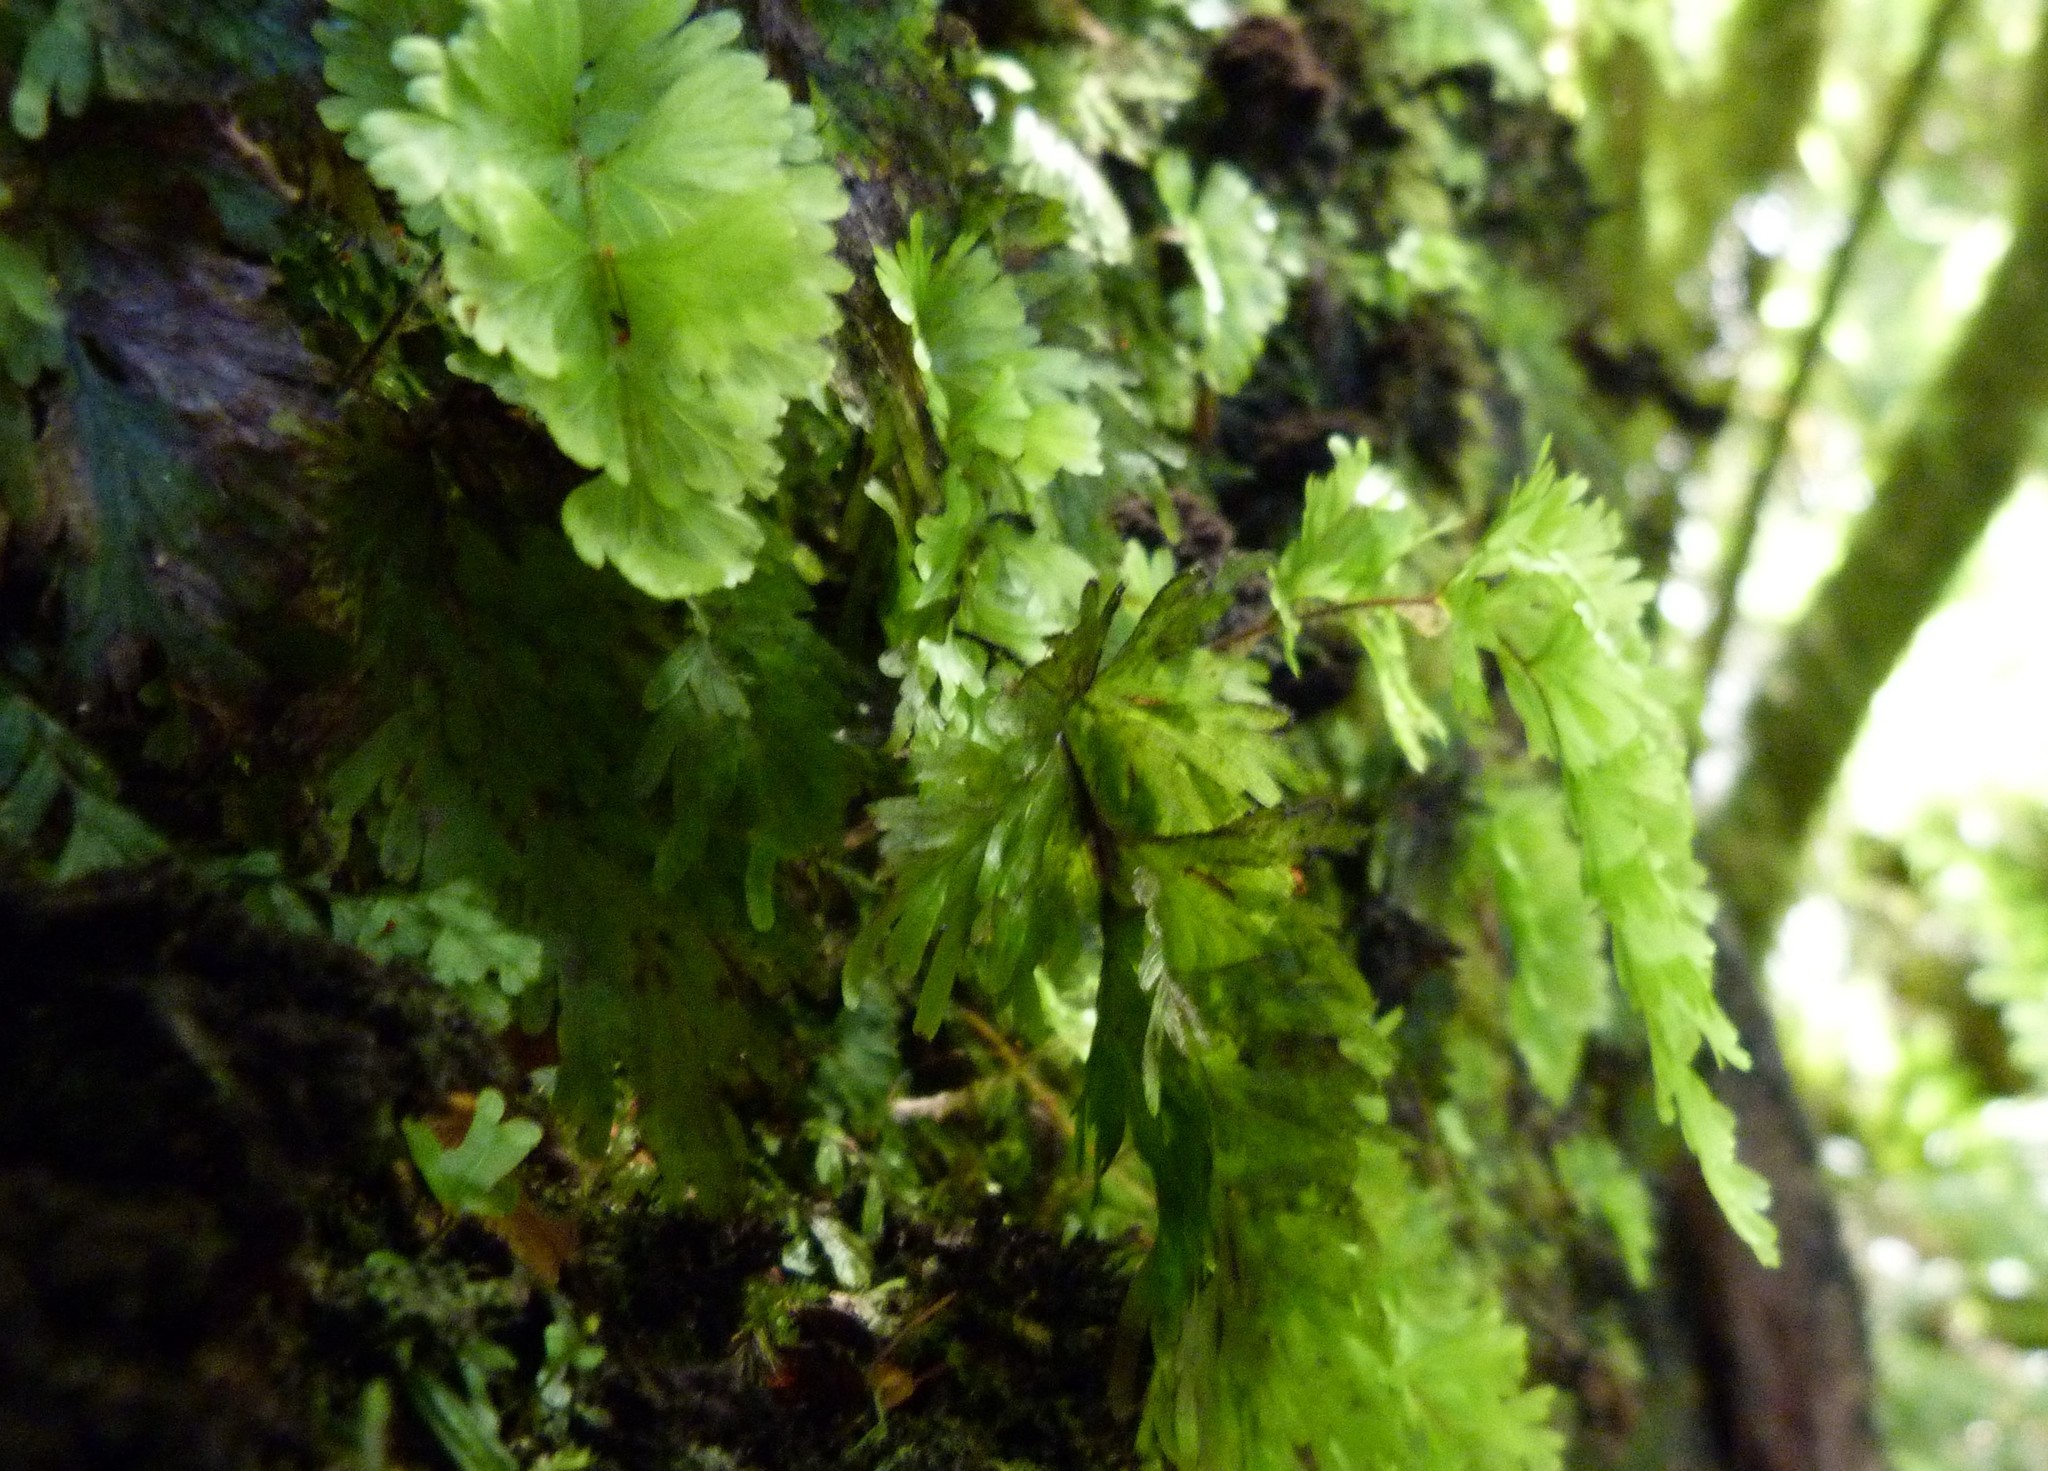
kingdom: Plantae
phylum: Tracheophyta
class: Polypodiopsida
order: Hymenophyllales
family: Hymenophyllaceae
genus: Hymenophyllum
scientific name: Hymenophyllum flabellatum
